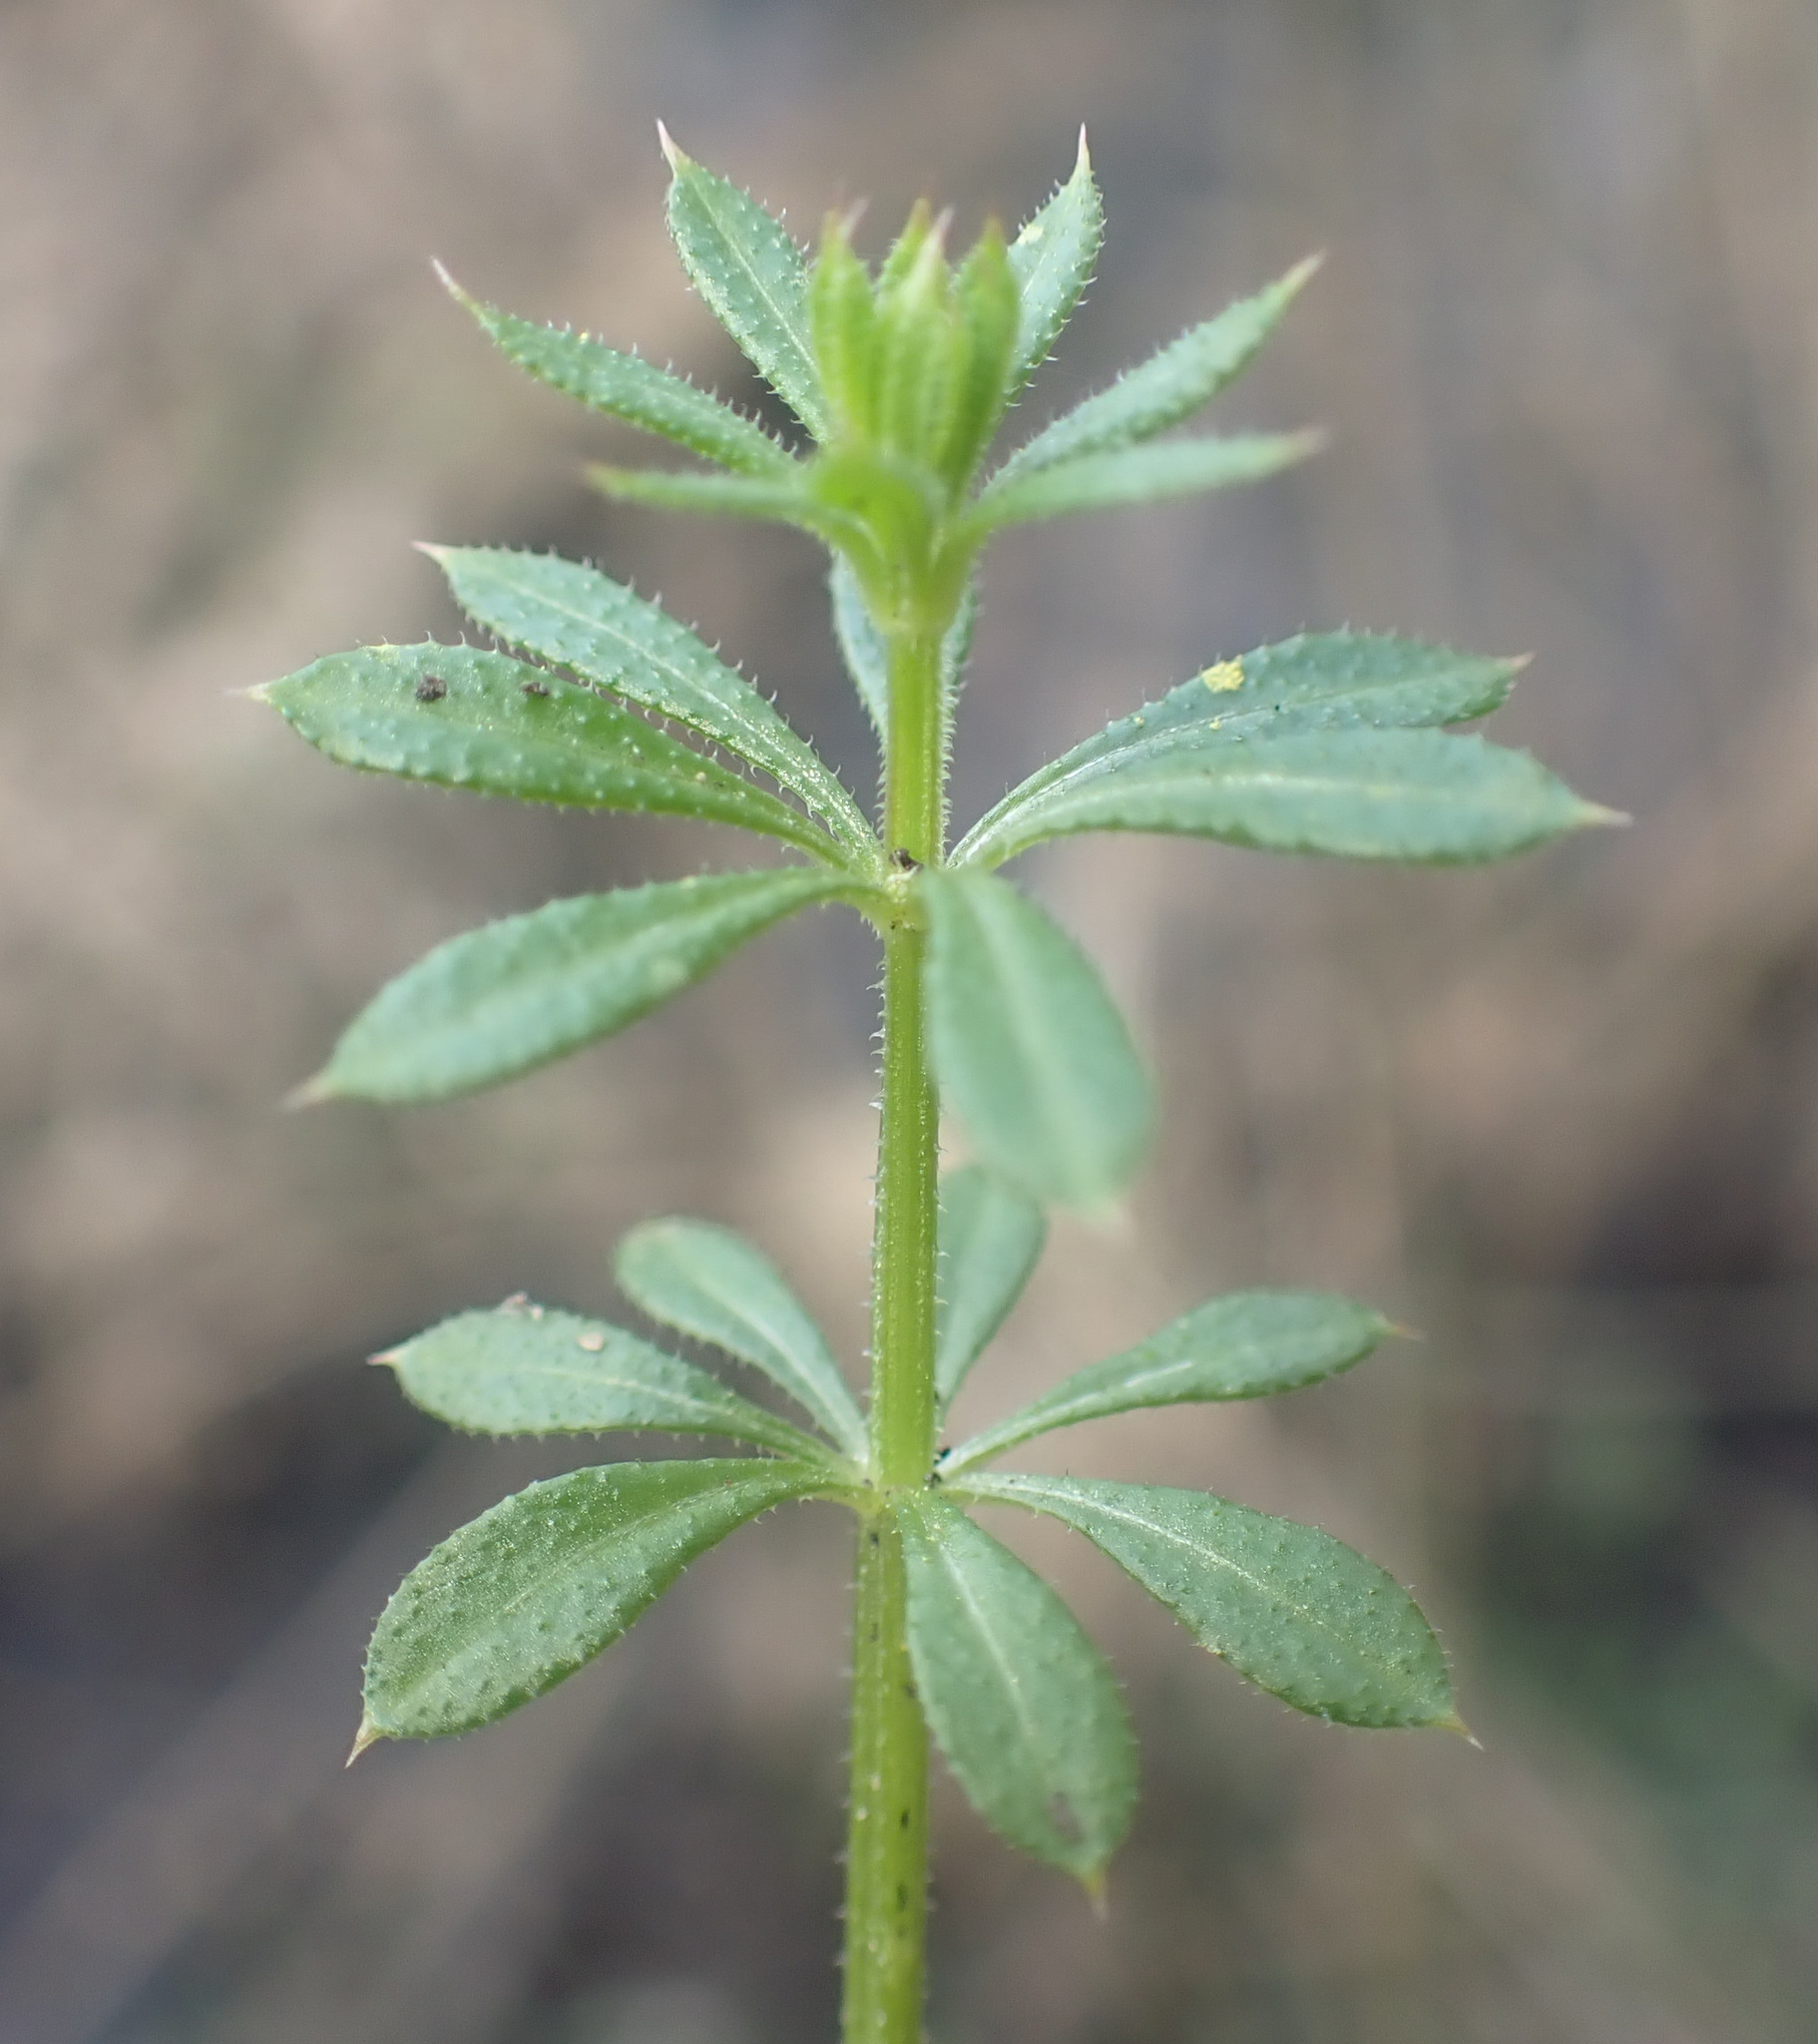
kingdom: Plantae
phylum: Tracheophyta
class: Magnoliopsida
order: Gentianales
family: Rubiaceae
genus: Galium
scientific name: Galium aparine
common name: Cleavers
